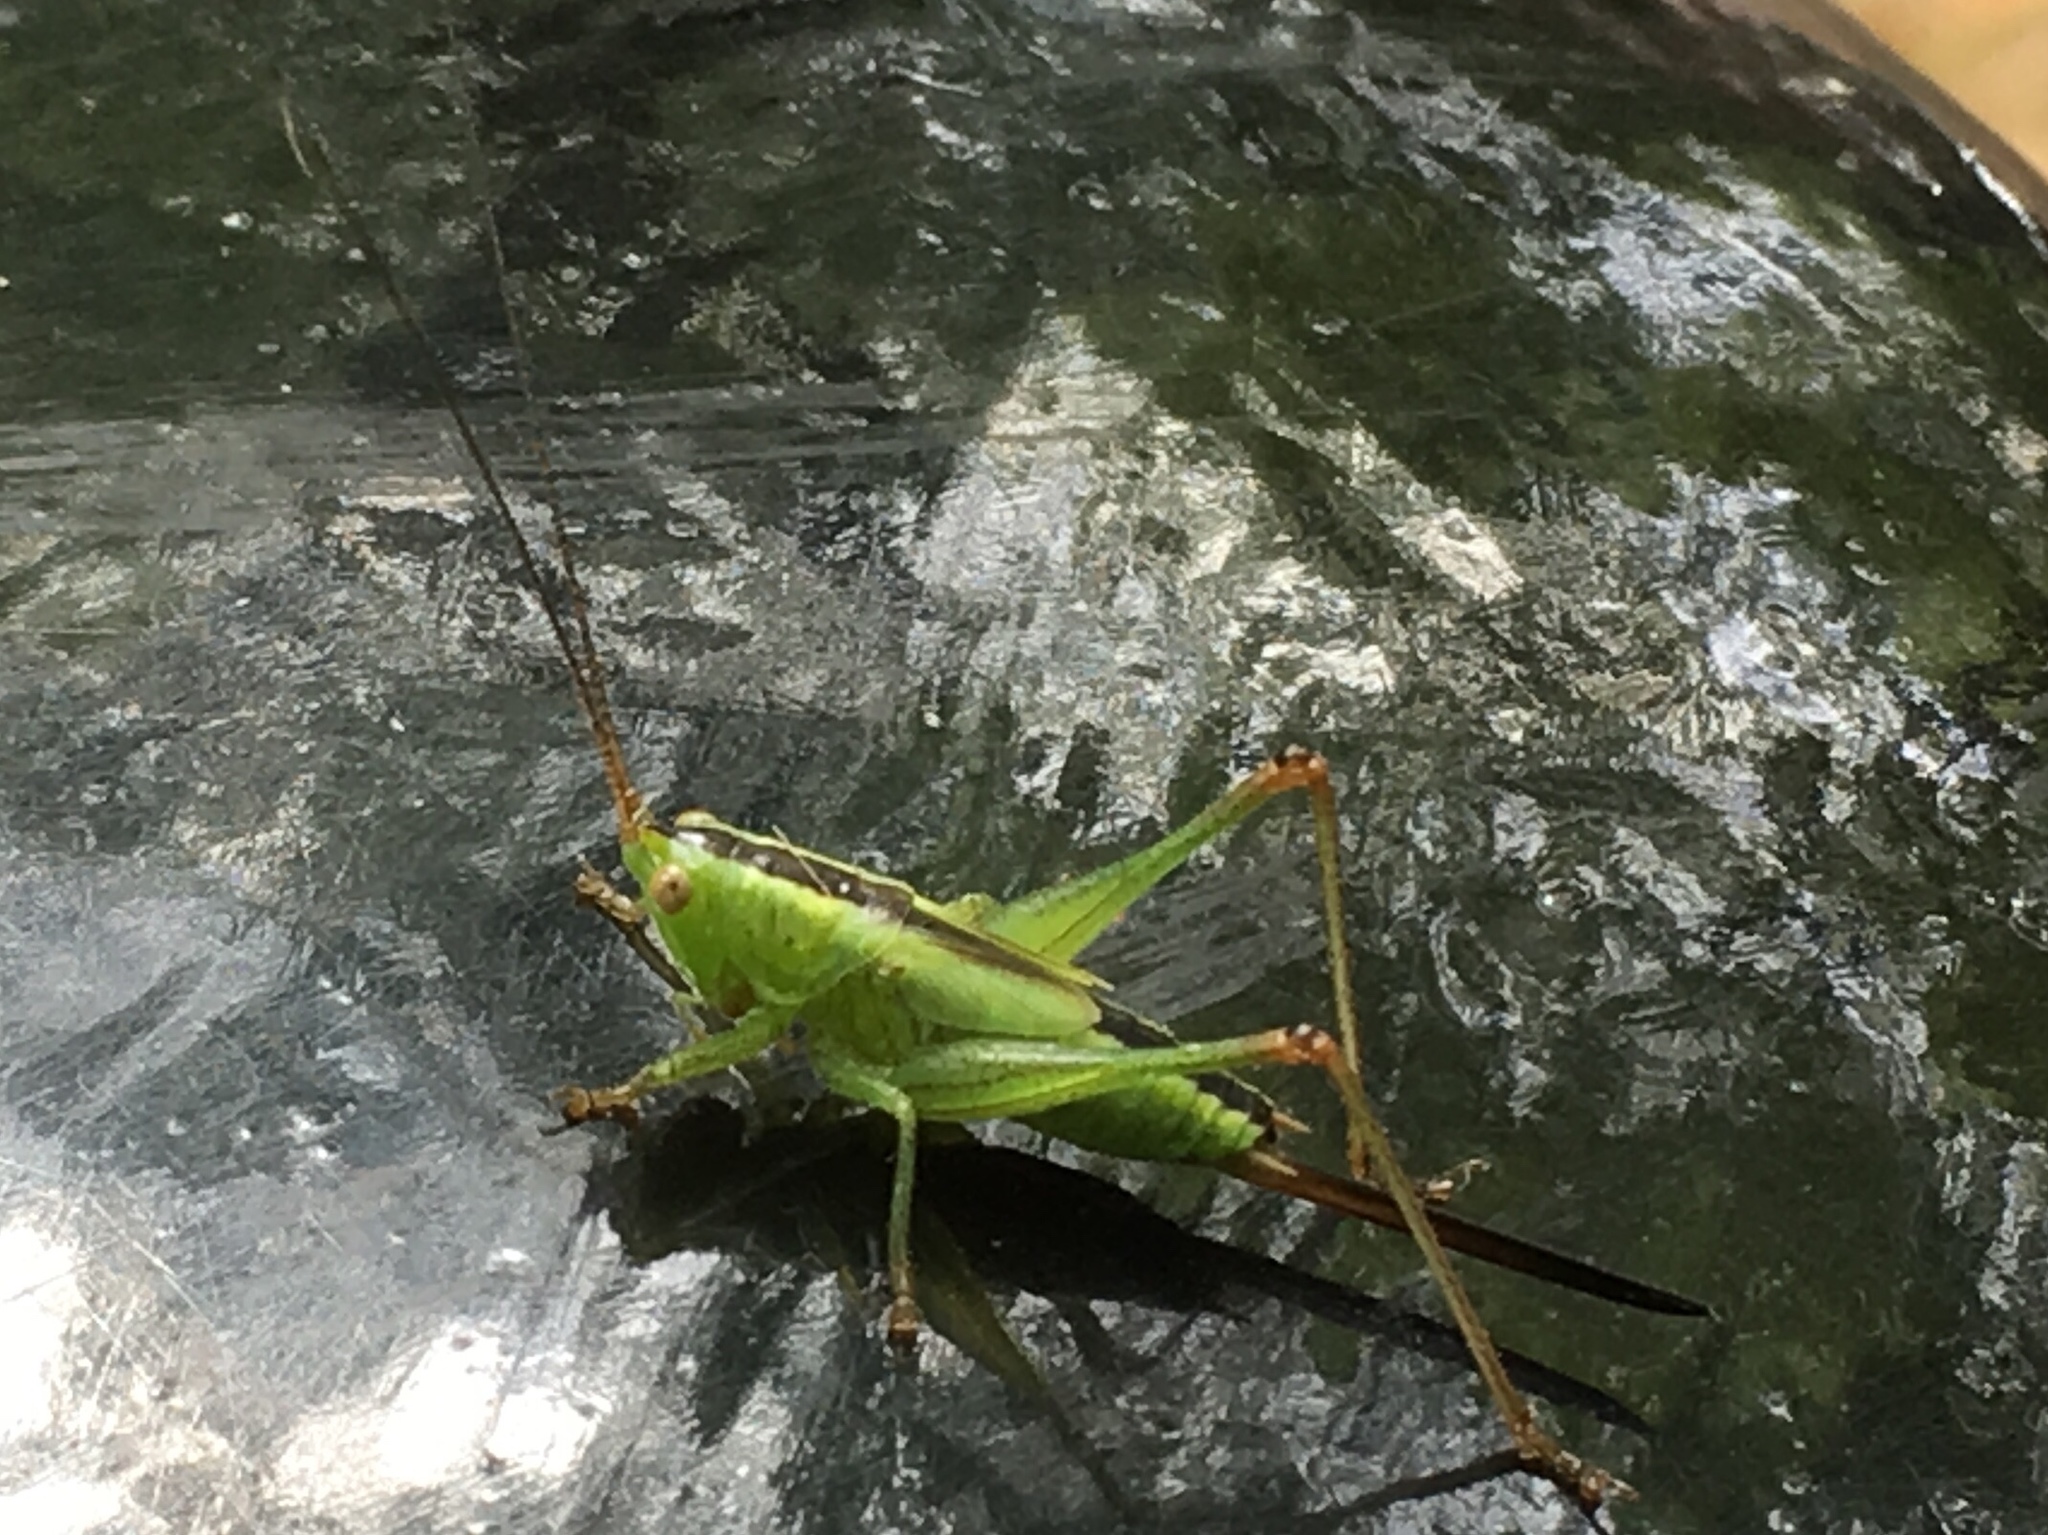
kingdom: Animalia
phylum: Arthropoda
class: Insecta
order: Orthoptera
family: Tettigoniidae
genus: Conocephalus
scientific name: Conocephalus fuscus
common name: Long-winged conehead
